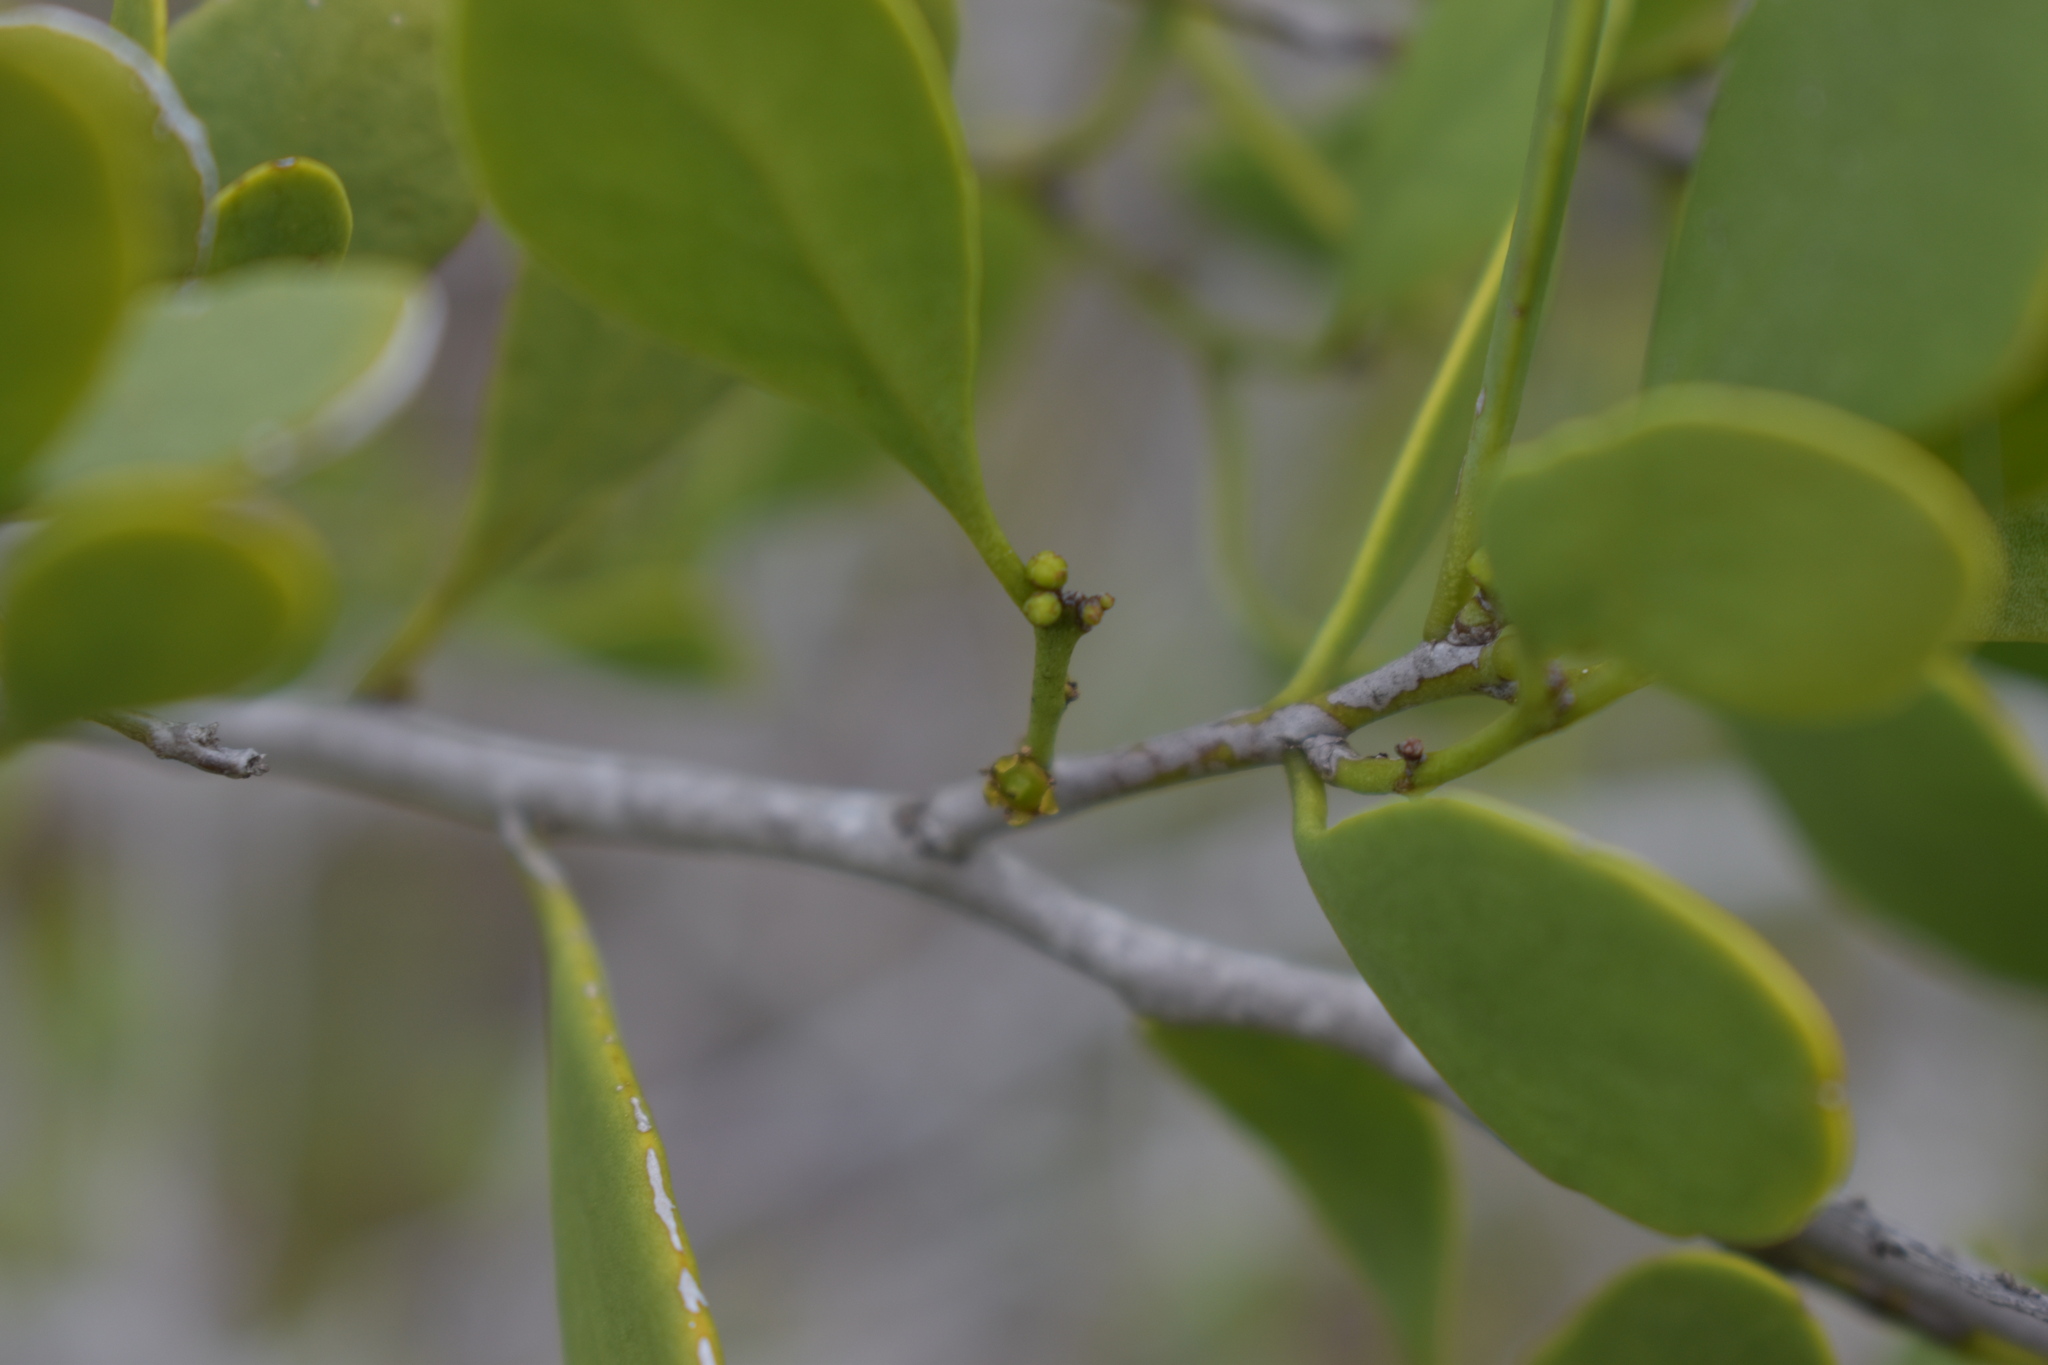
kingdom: Plantae
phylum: Tracheophyta
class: Magnoliopsida
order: Celastrales
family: Celastraceae
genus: Tricerma
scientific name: Tricerma phyllanthoides
